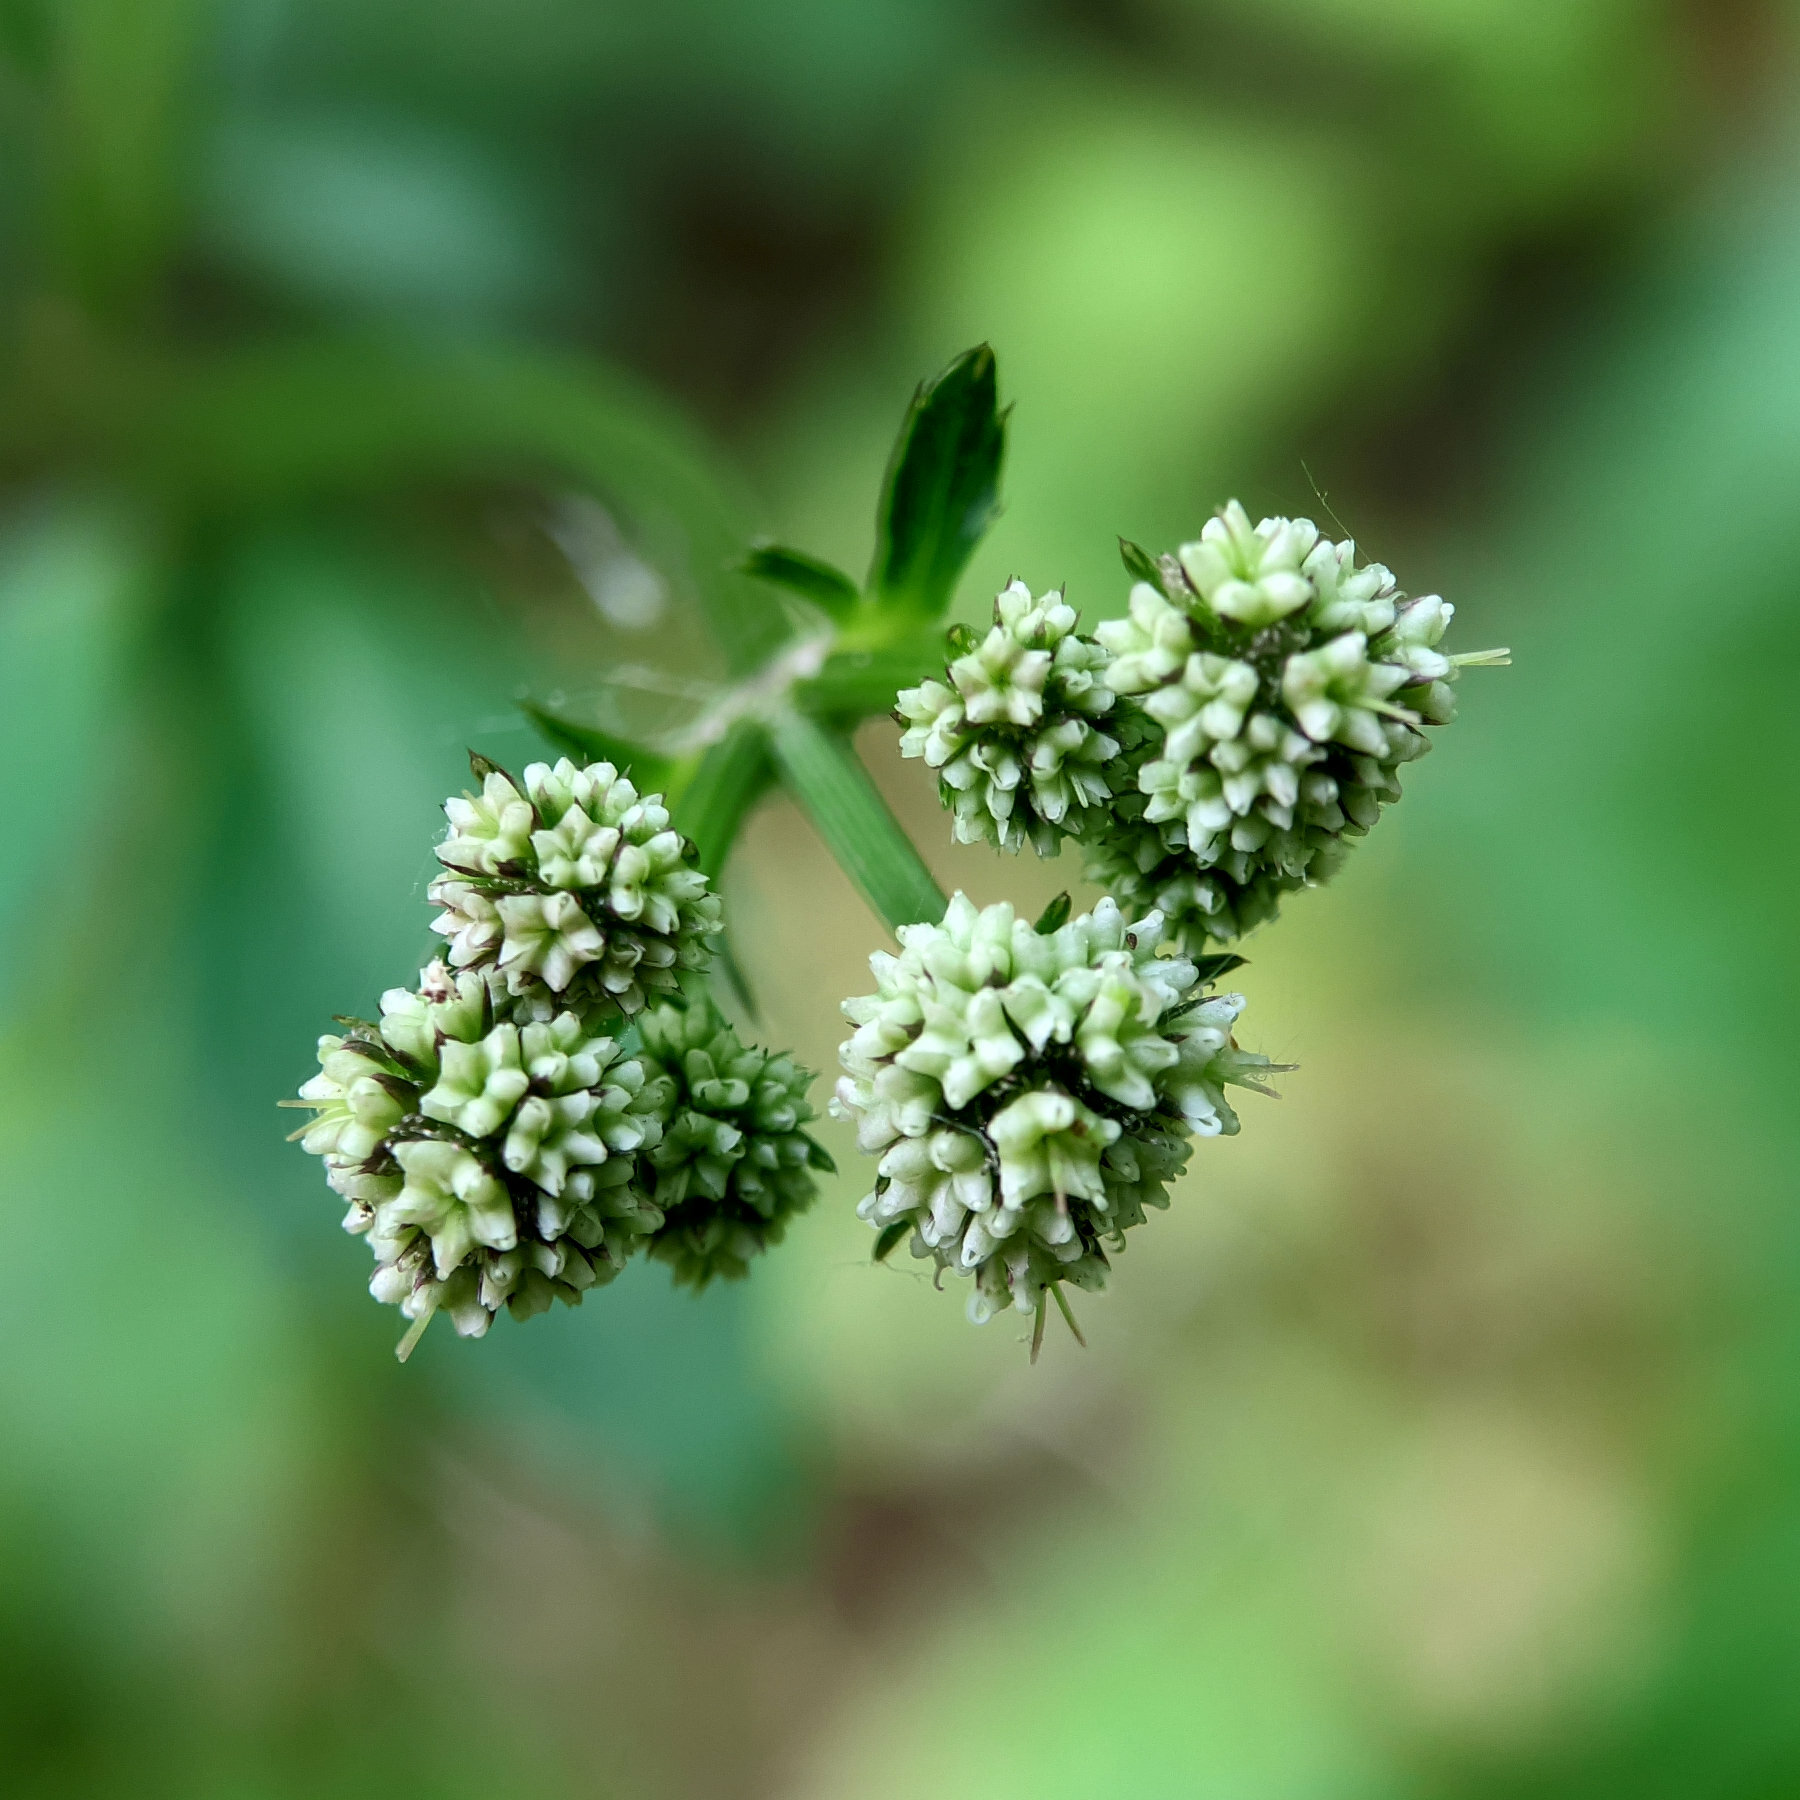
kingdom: Plantae
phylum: Tracheophyta
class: Magnoliopsida
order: Apiales
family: Apiaceae
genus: Sanicula
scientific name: Sanicula europaea
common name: Sanicle
